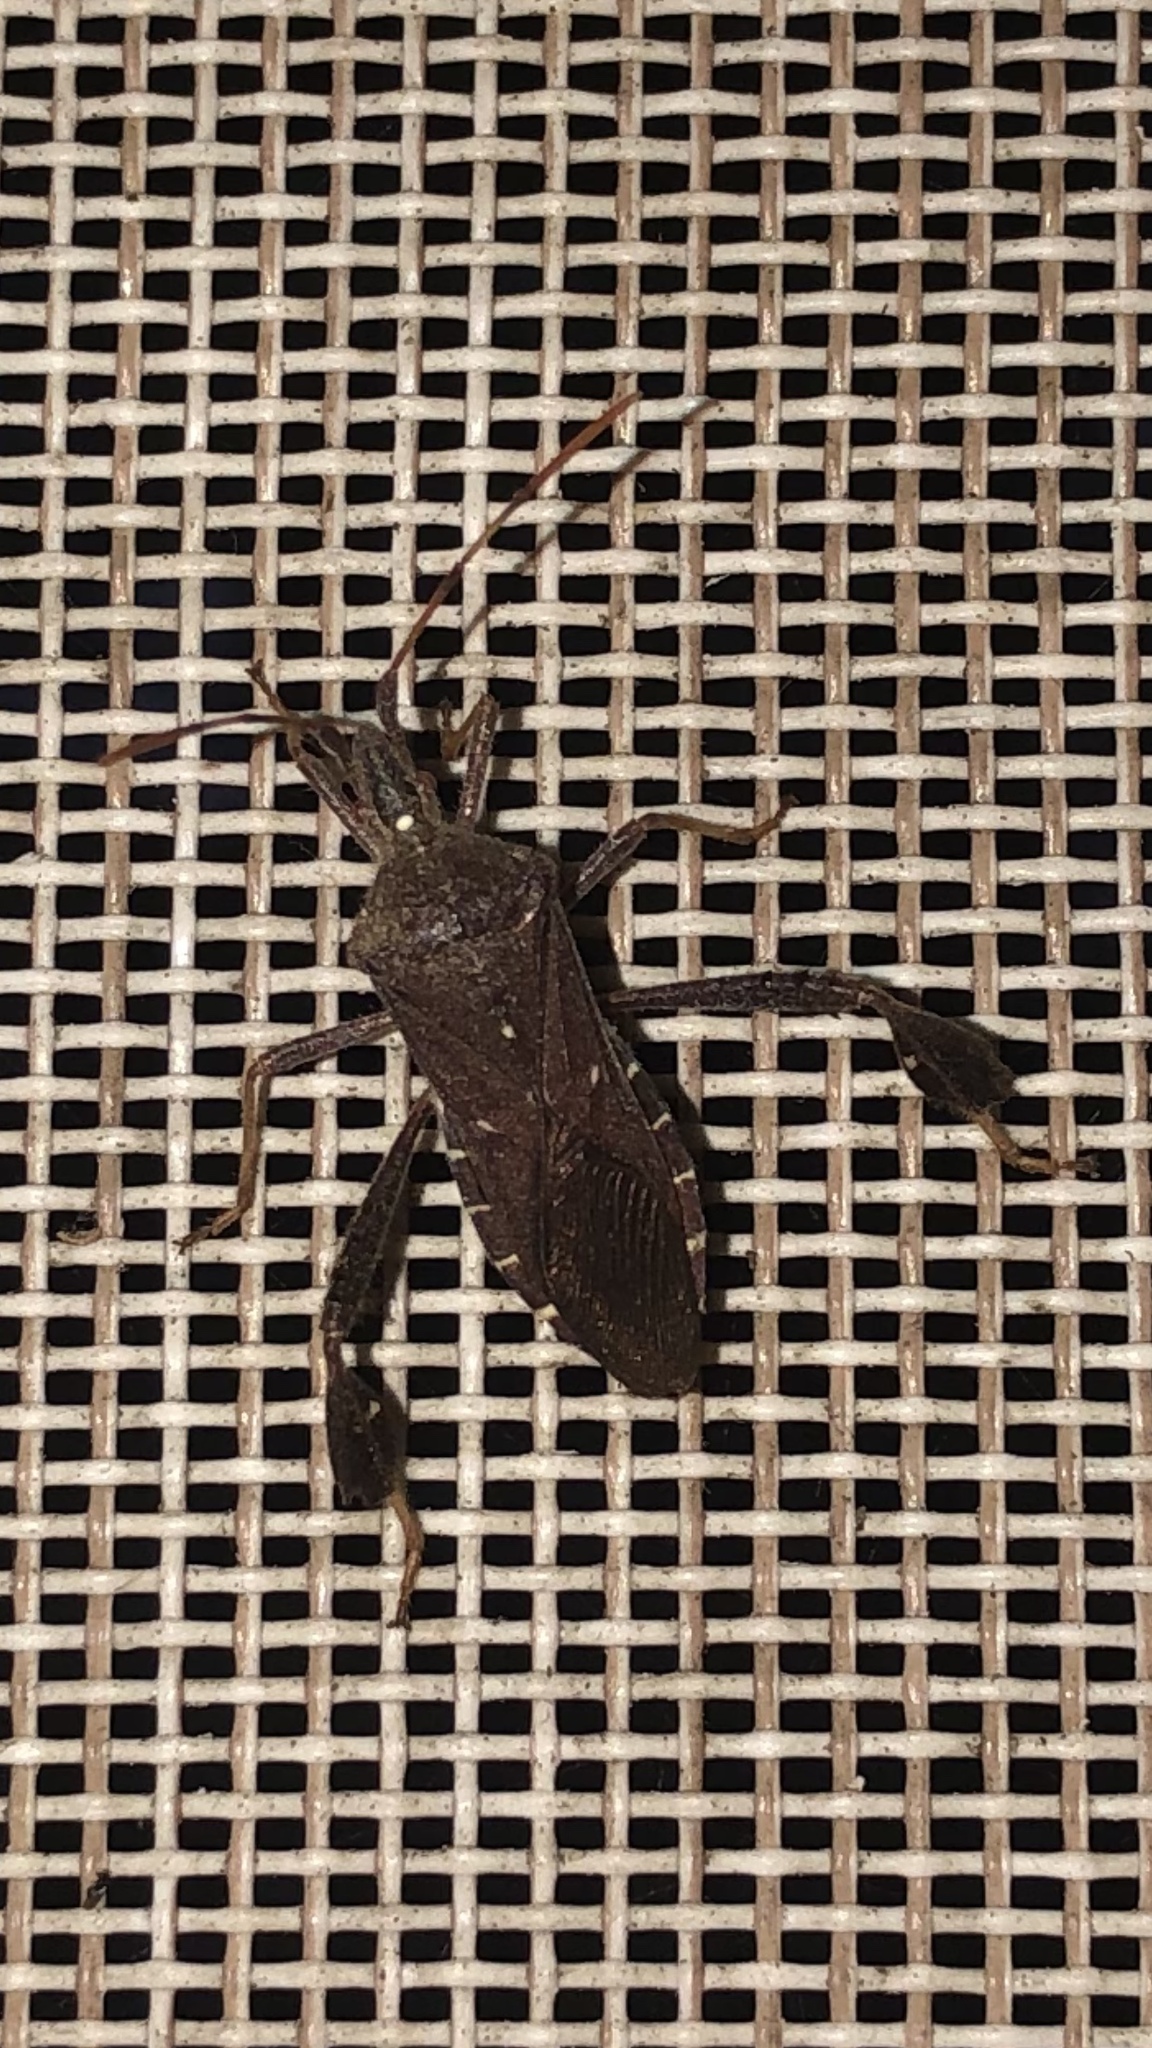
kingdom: Animalia
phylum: Arthropoda
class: Insecta
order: Hemiptera
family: Coreidae
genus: Leptoglossus
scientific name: Leptoglossus oppositus
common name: Northern leaf-footed bug
